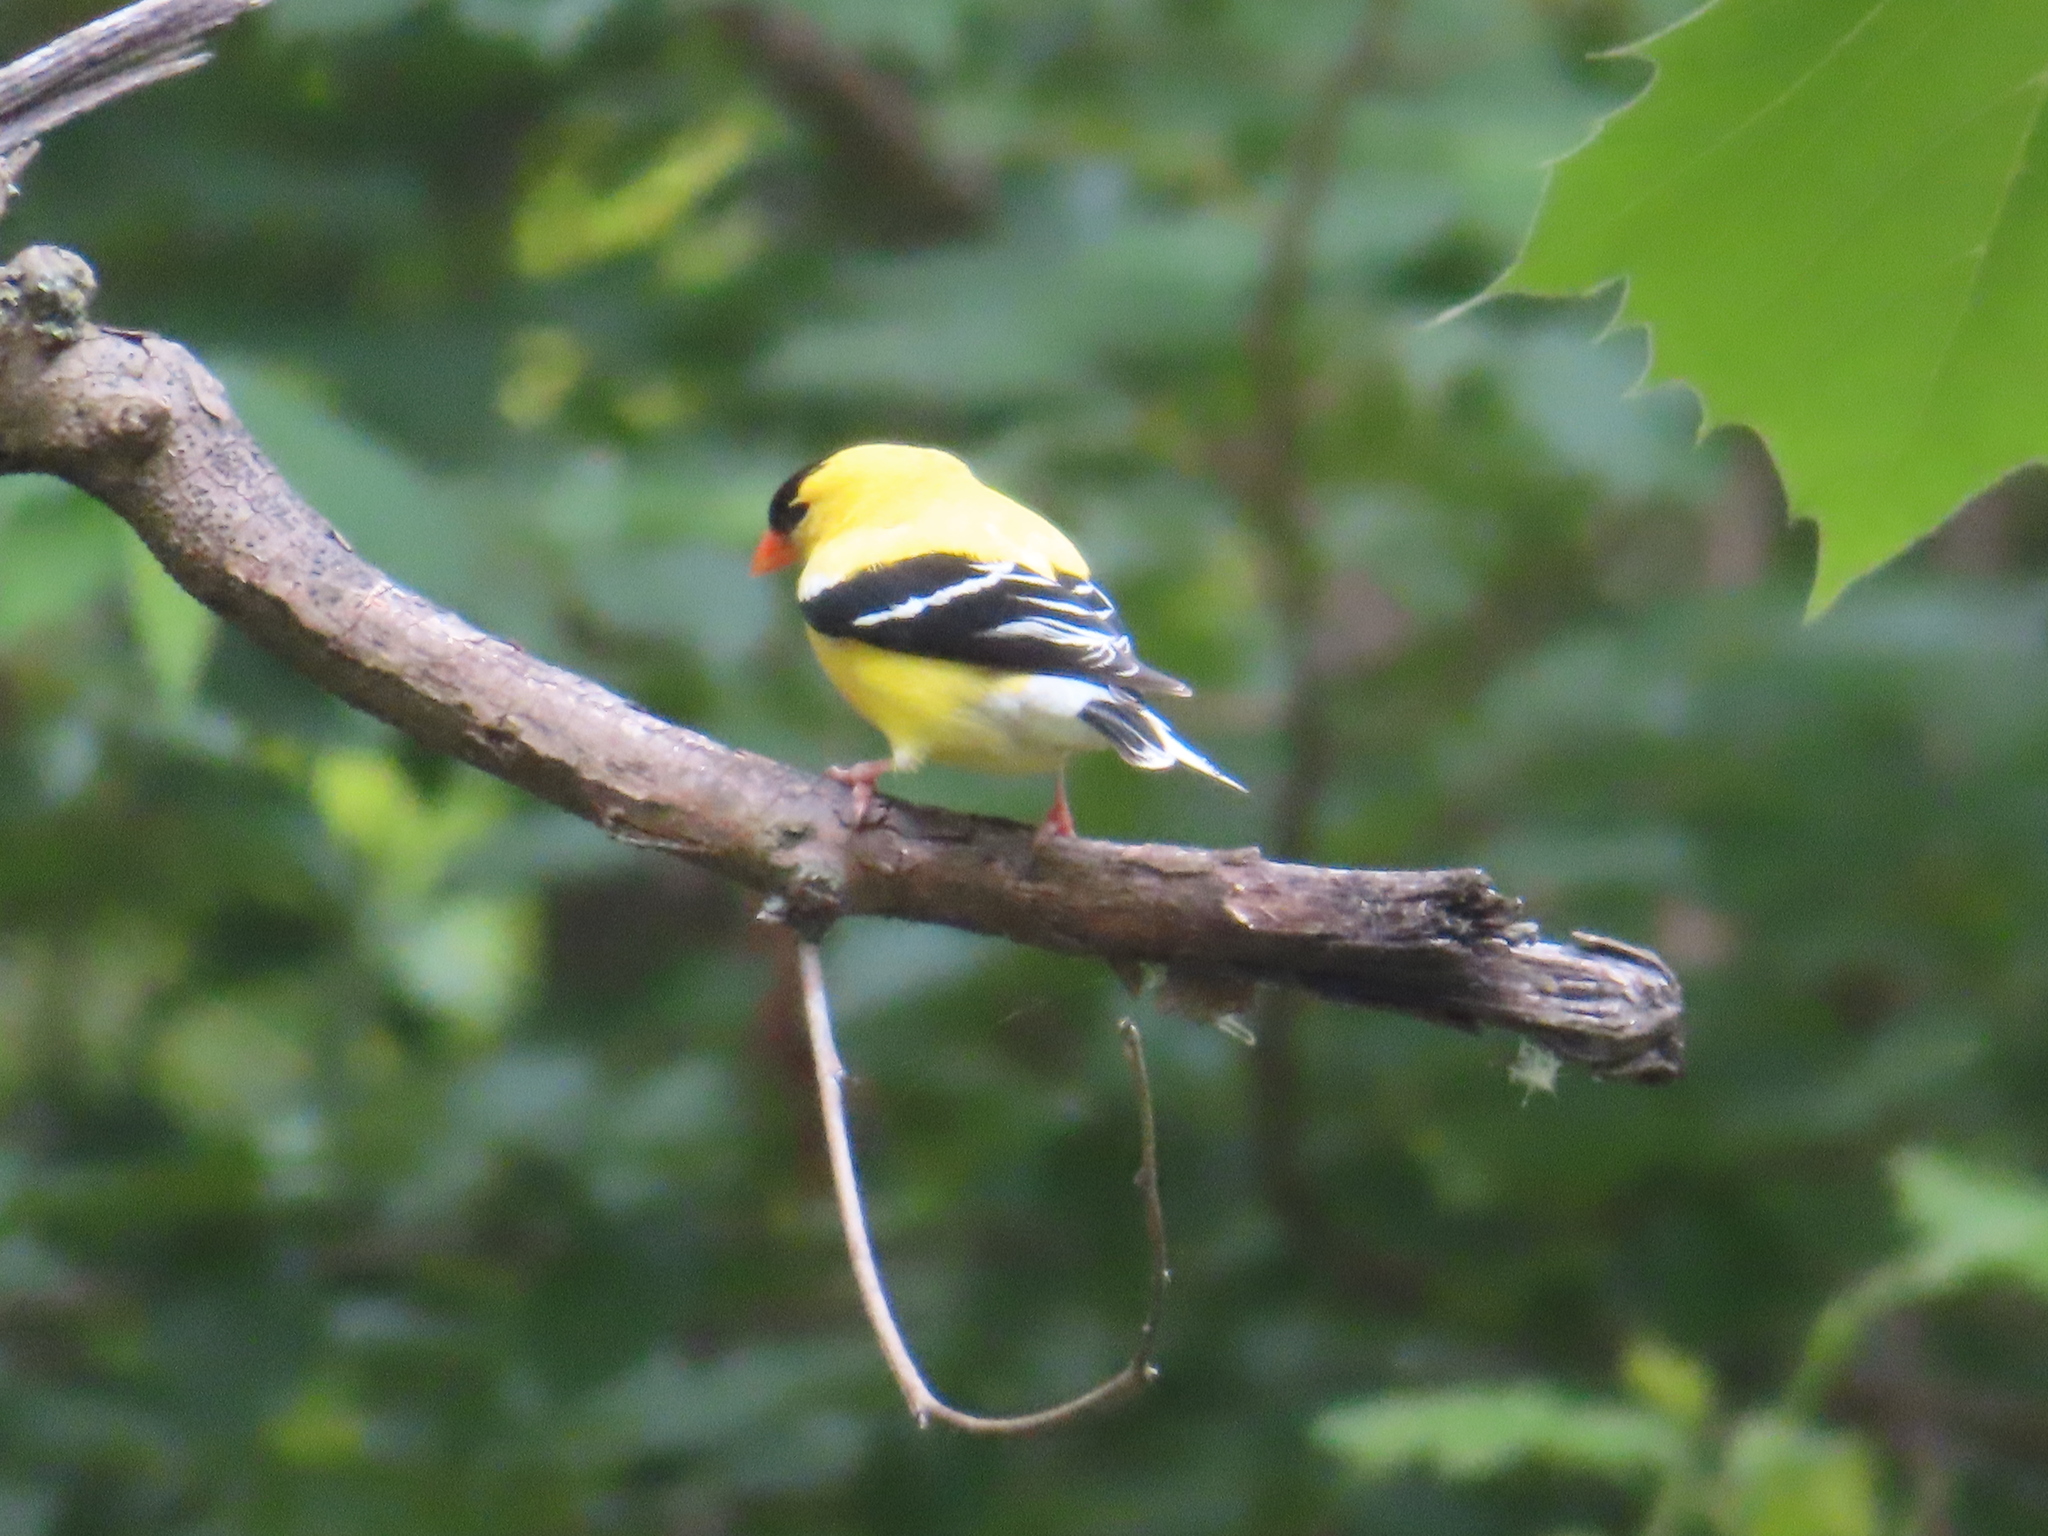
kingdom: Animalia
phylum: Chordata
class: Aves
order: Passeriformes
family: Fringillidae
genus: Spinus
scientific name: Spinus tristis
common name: American goldfinch
